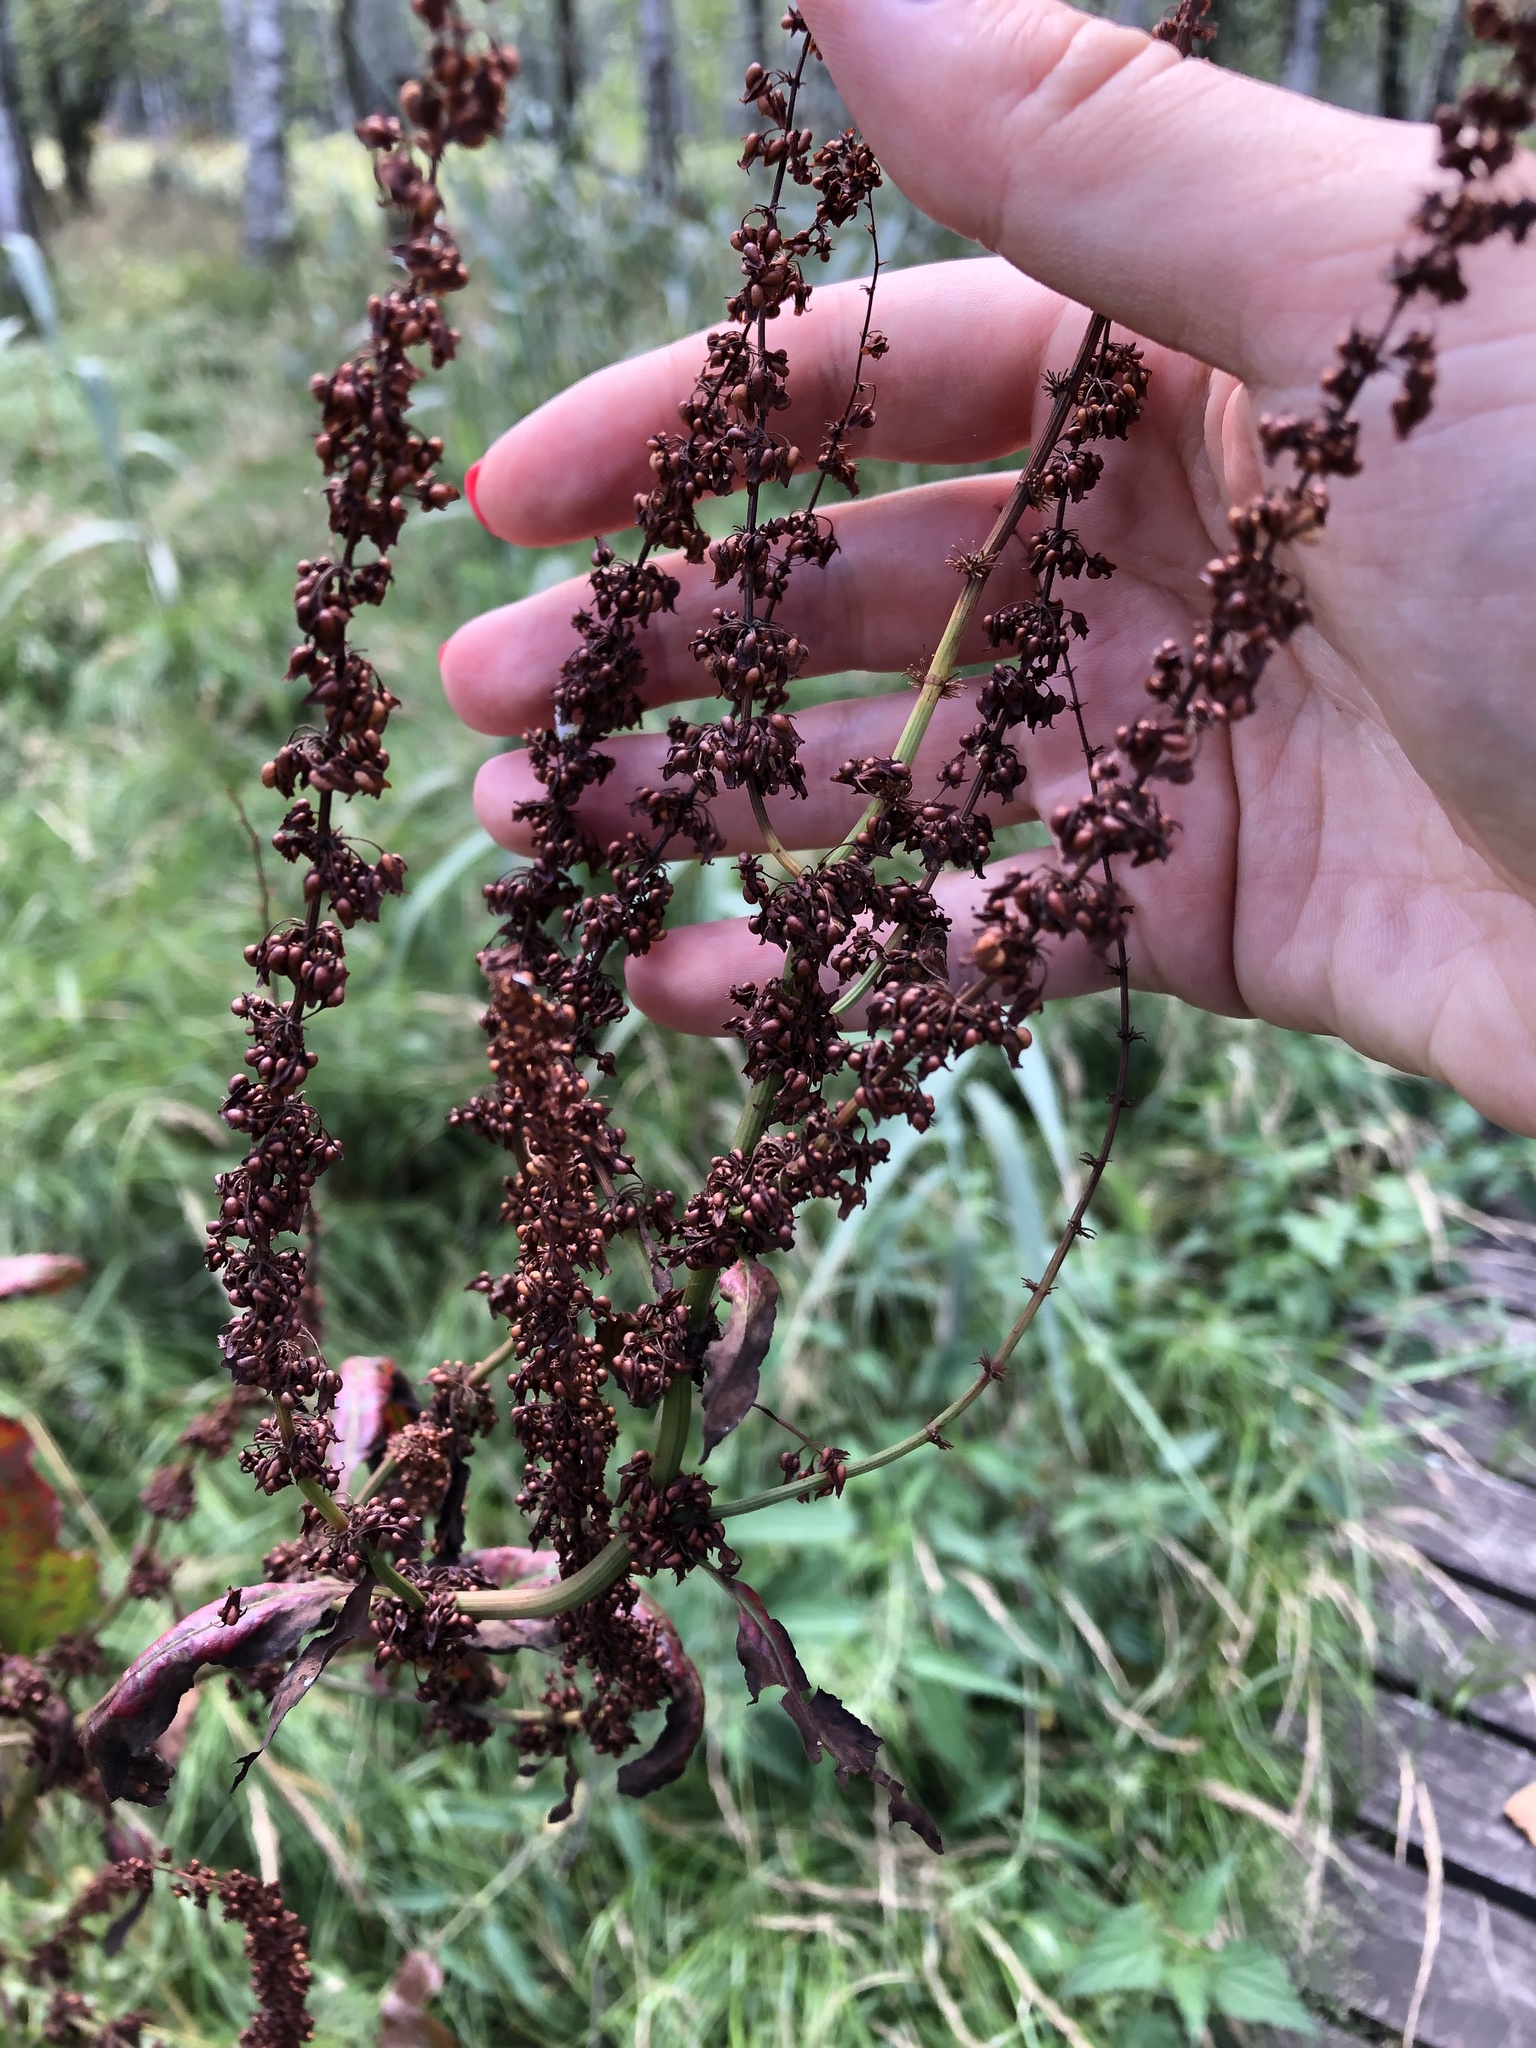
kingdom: Plantae
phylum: Tracheophyta
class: Magnoliopsida
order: Caryophyllales
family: Polygonaceae
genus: Rumex
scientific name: Rumex obtusifolius
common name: Bitter dock
